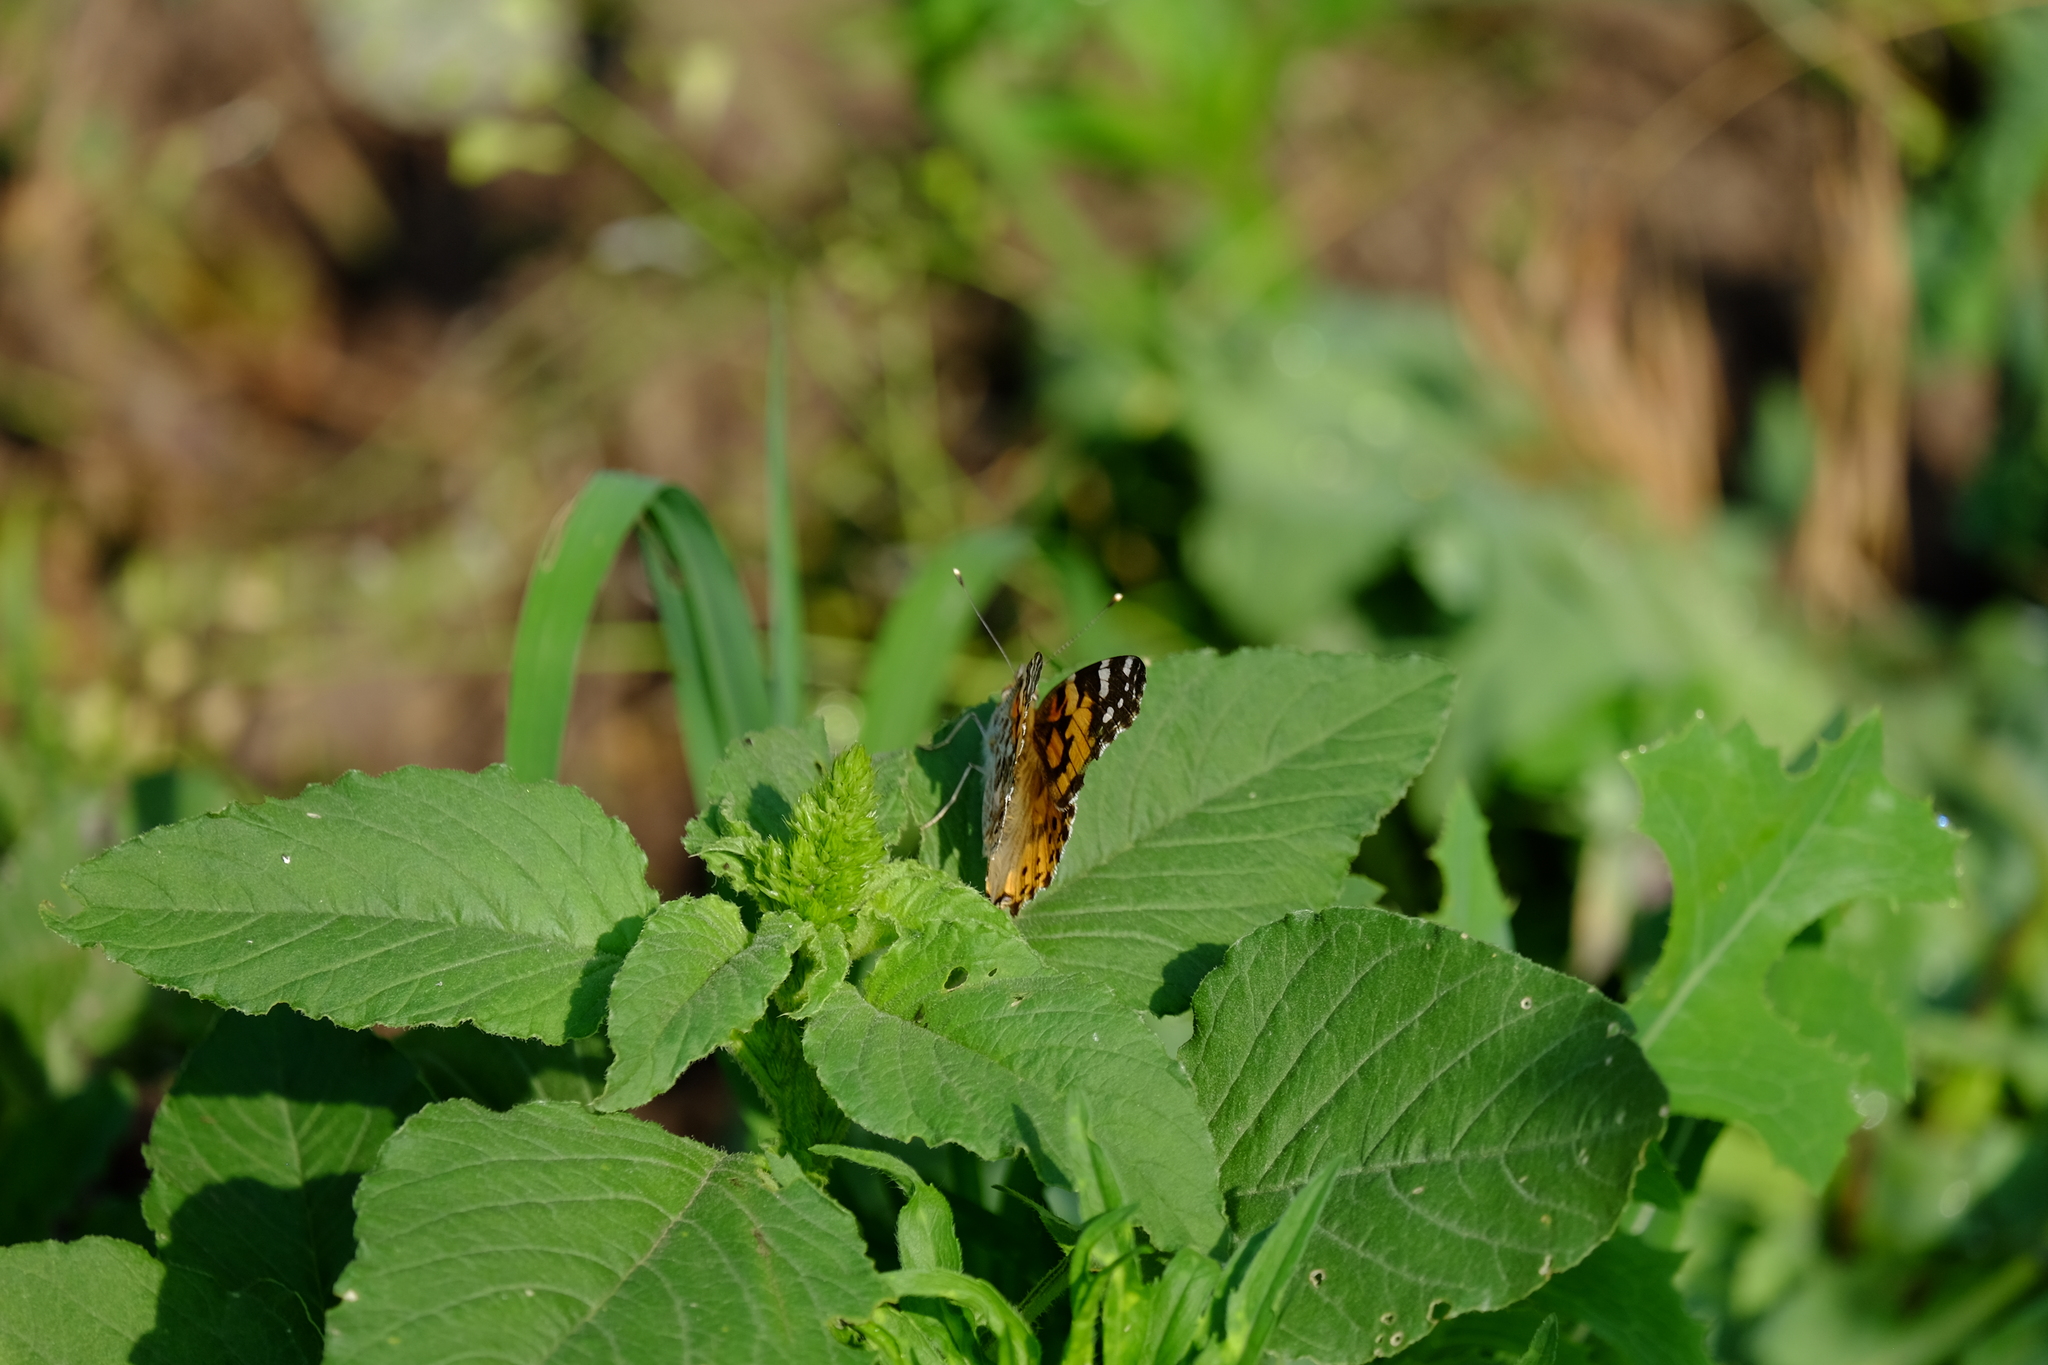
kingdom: Animalia
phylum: Arthropoda
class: Insecta
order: Lepidoptera
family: Nymphalidae
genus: Vanessa
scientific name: Vanessa cardui
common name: Painted lady
